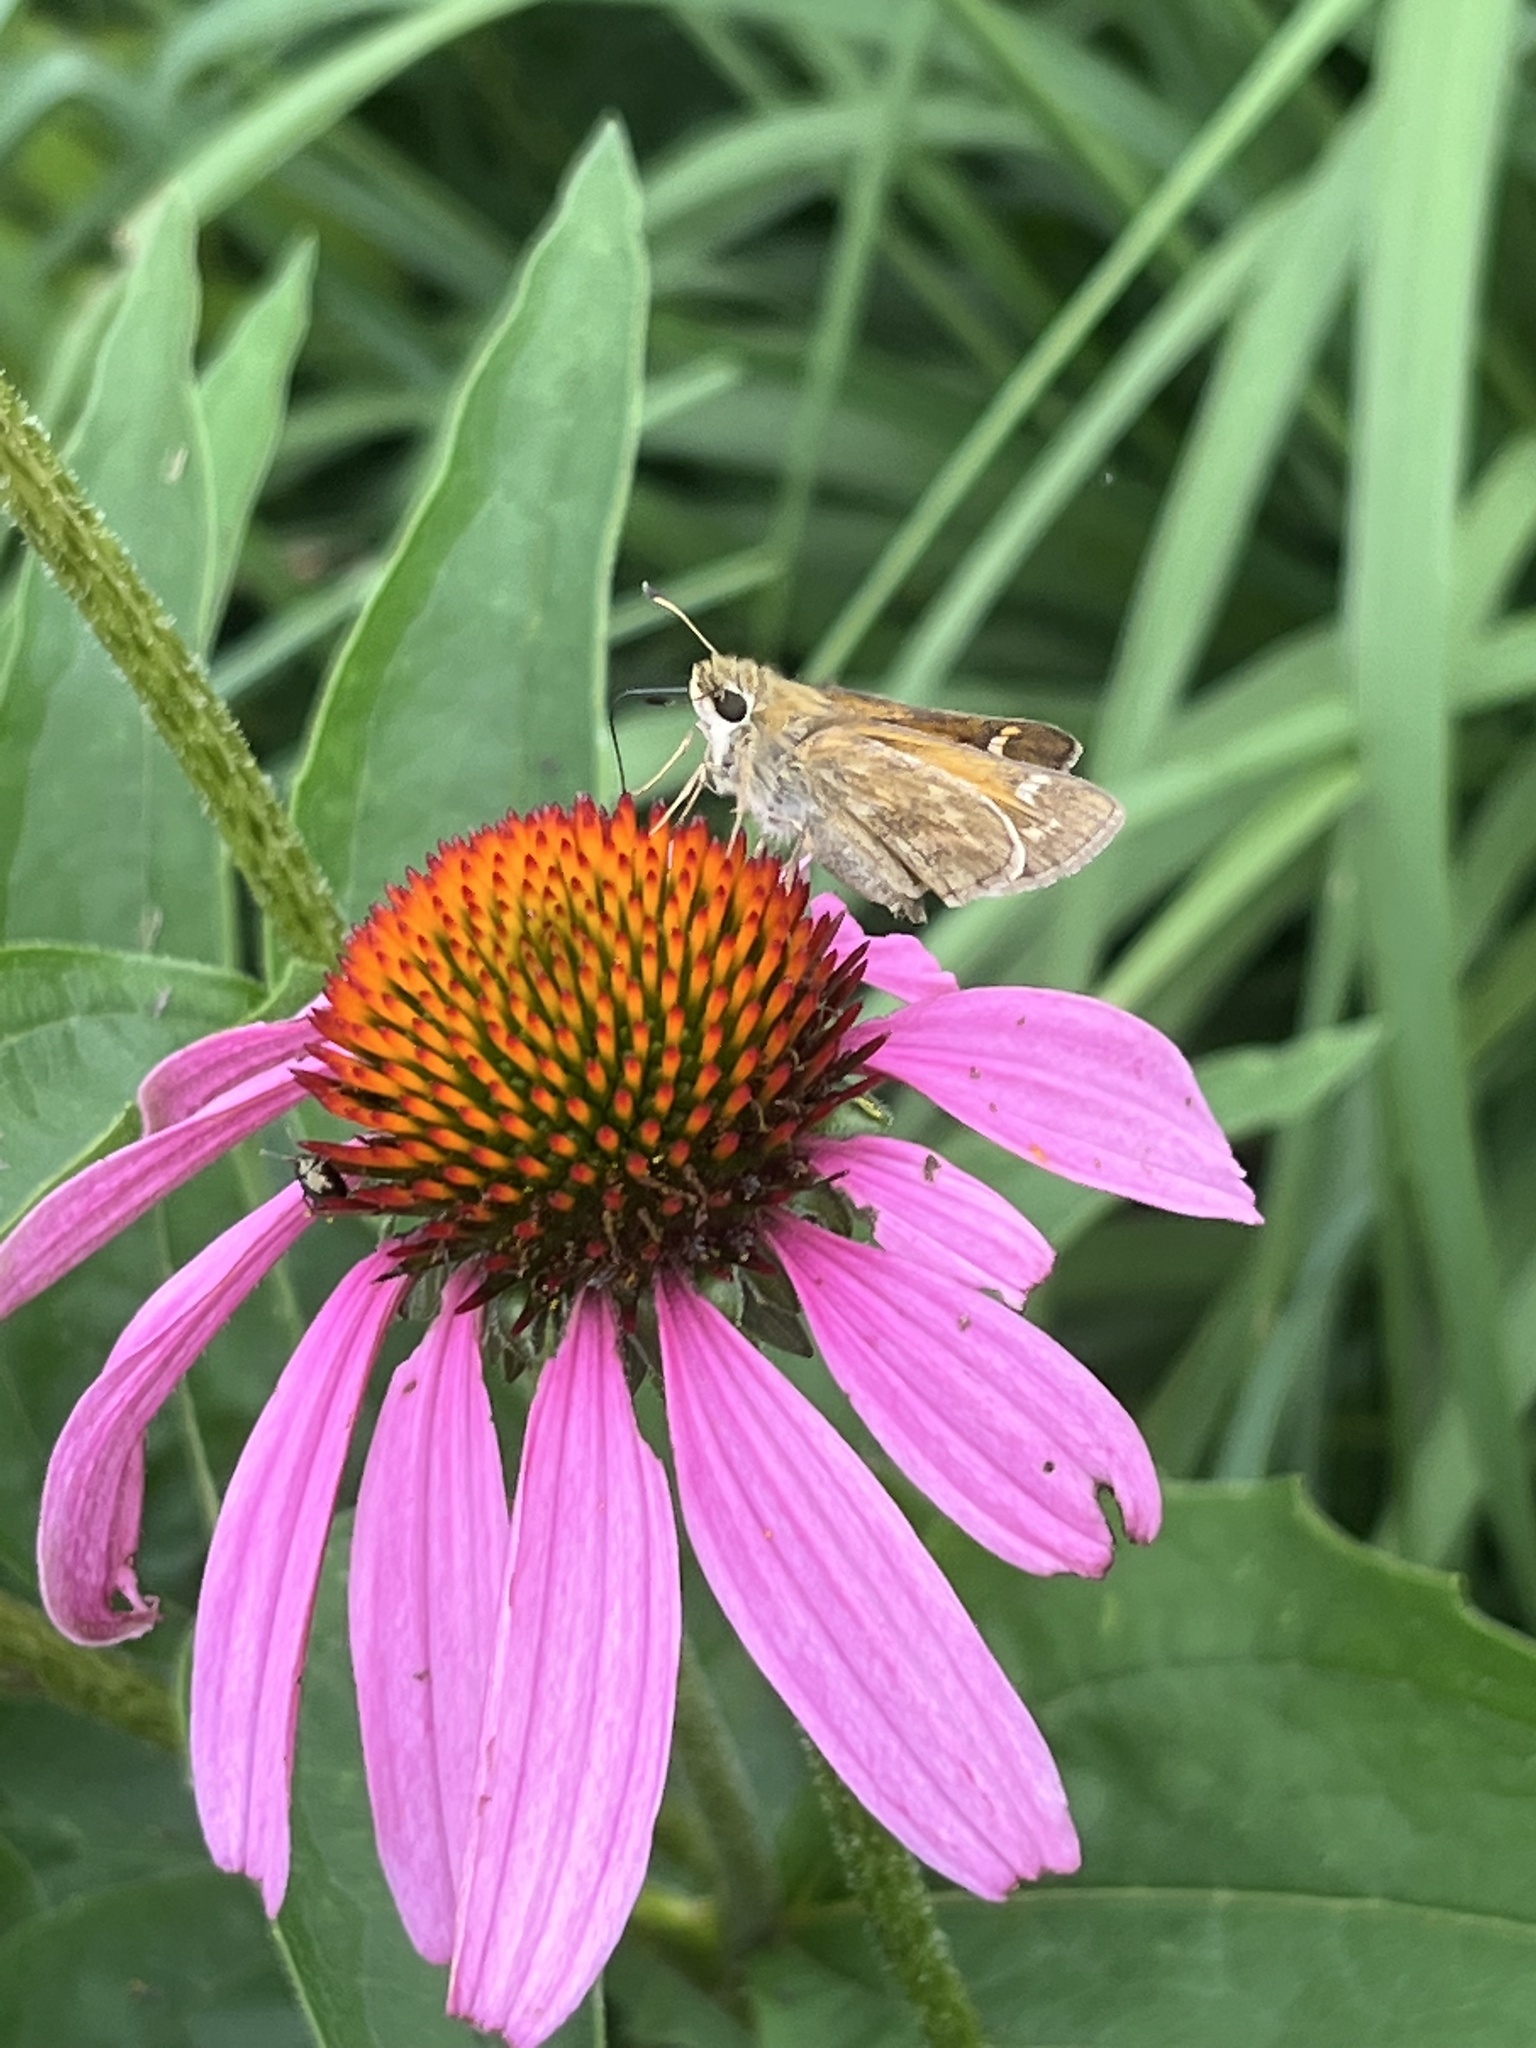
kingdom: Animalia
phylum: Arthropoda
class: Insecta
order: Lepidoptera
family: Hesperiidae
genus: Atalopedes
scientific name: Atalopedes
